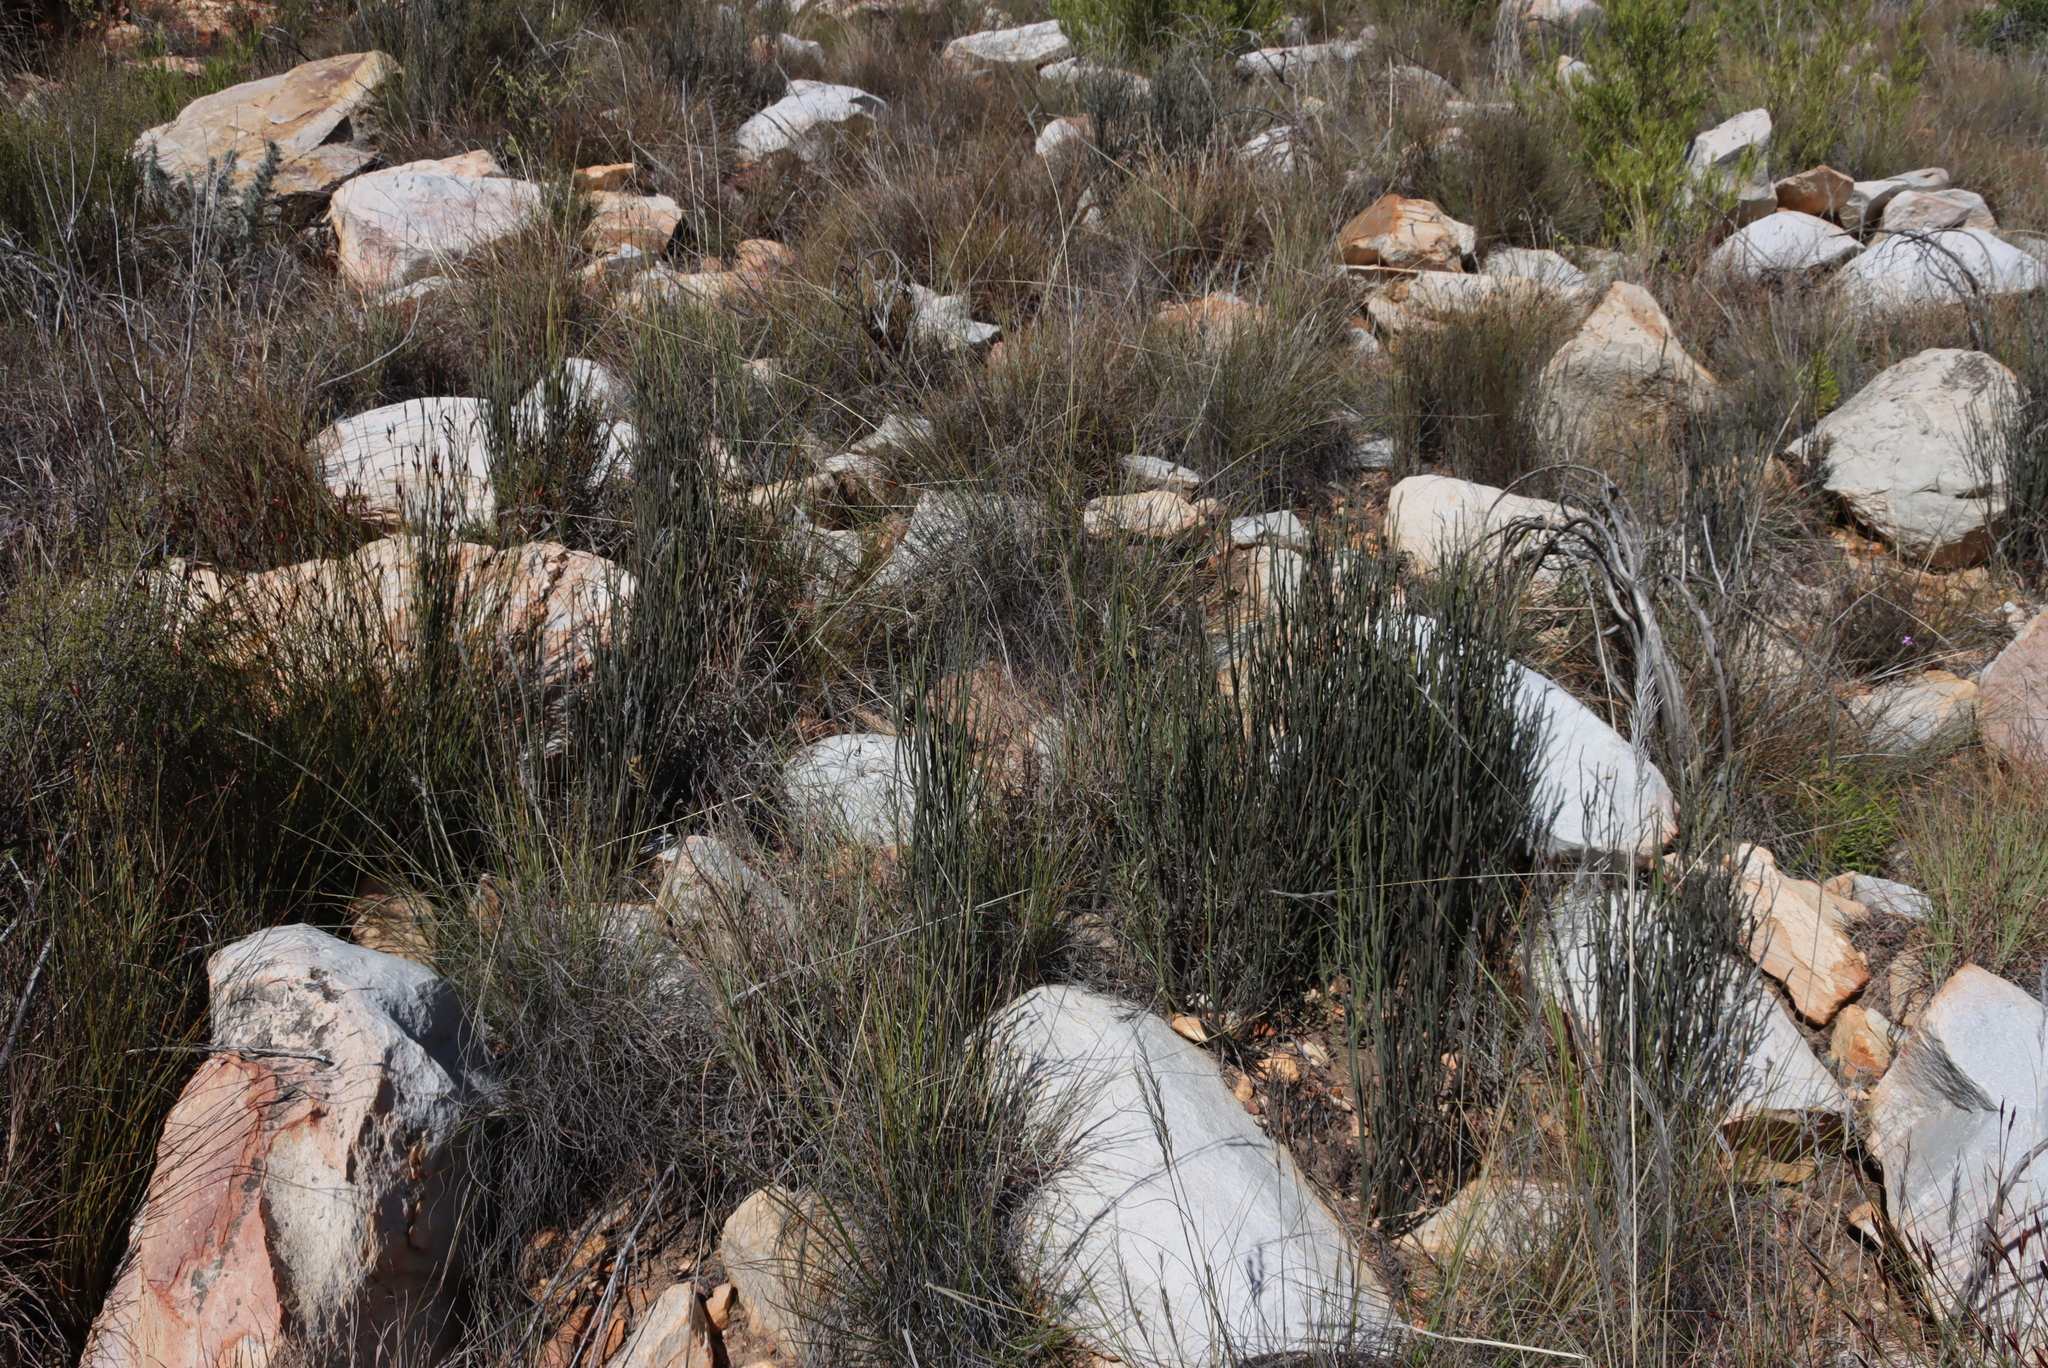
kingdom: Plantae
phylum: Tracheophyta
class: Magnoliopsida
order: Solanales
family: Montiniaceae
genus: Montinia
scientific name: Montinia caryophyllacea
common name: Wild clove-bush
